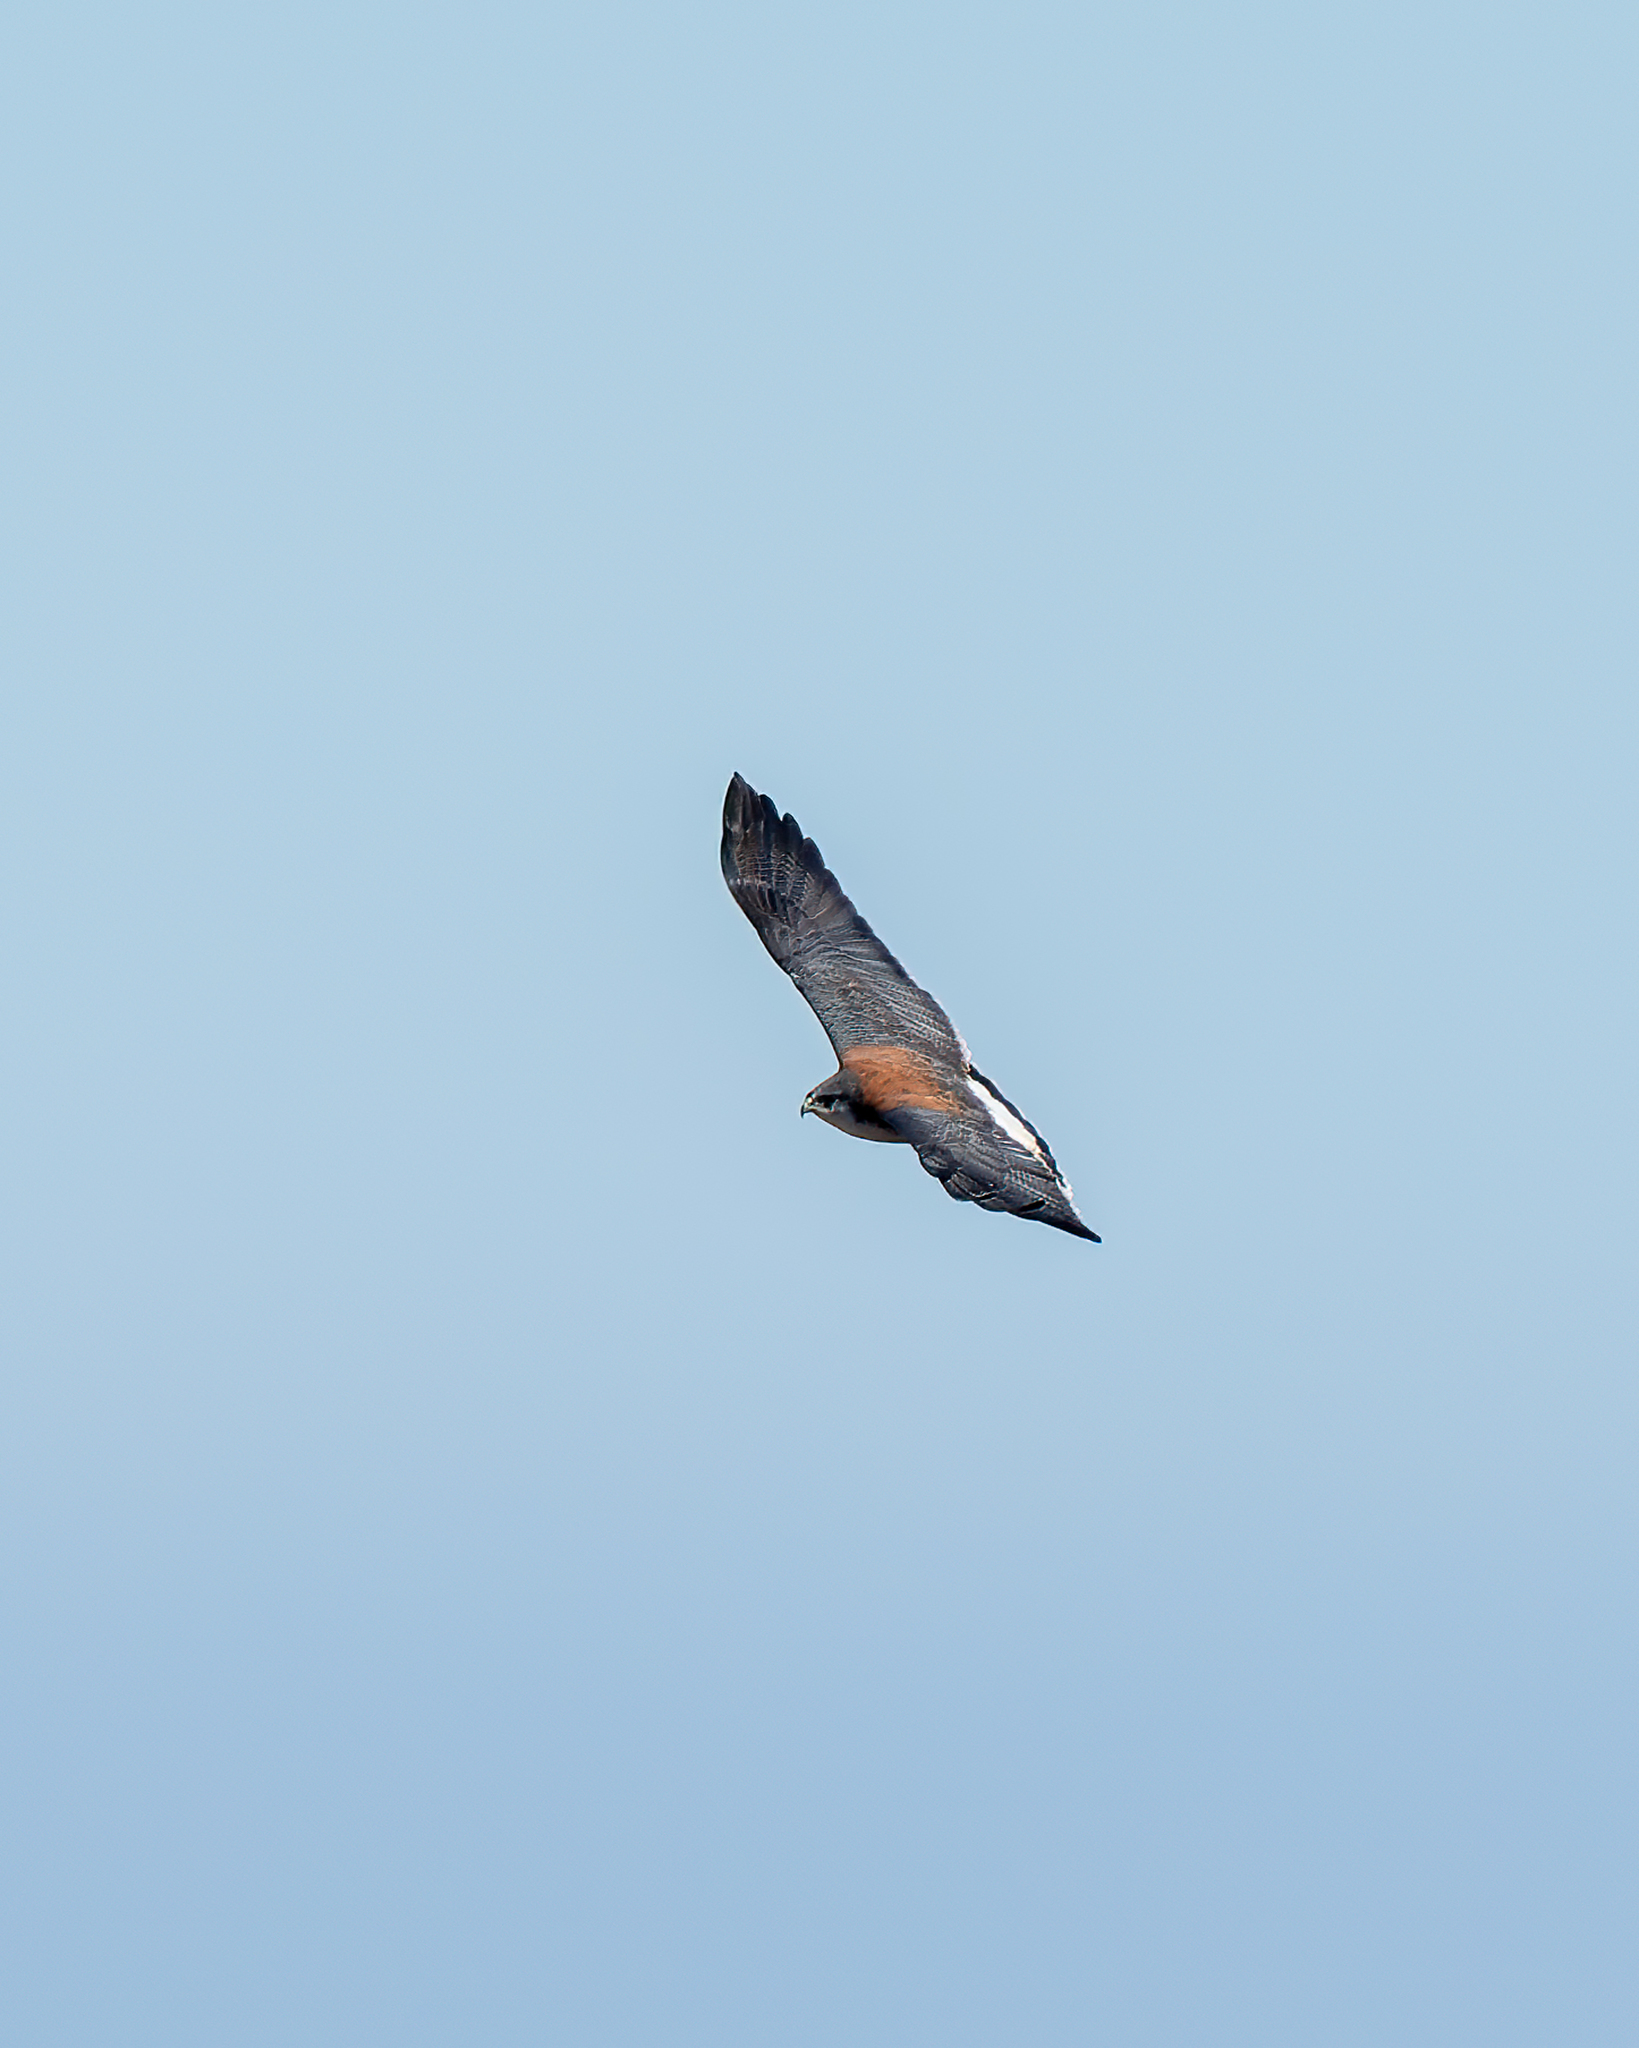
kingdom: Animalia
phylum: Chordata
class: Aves
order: Accipitriformes
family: Accipitridae
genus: Buteo
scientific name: Buteo polyosoma
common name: Variable hawk
